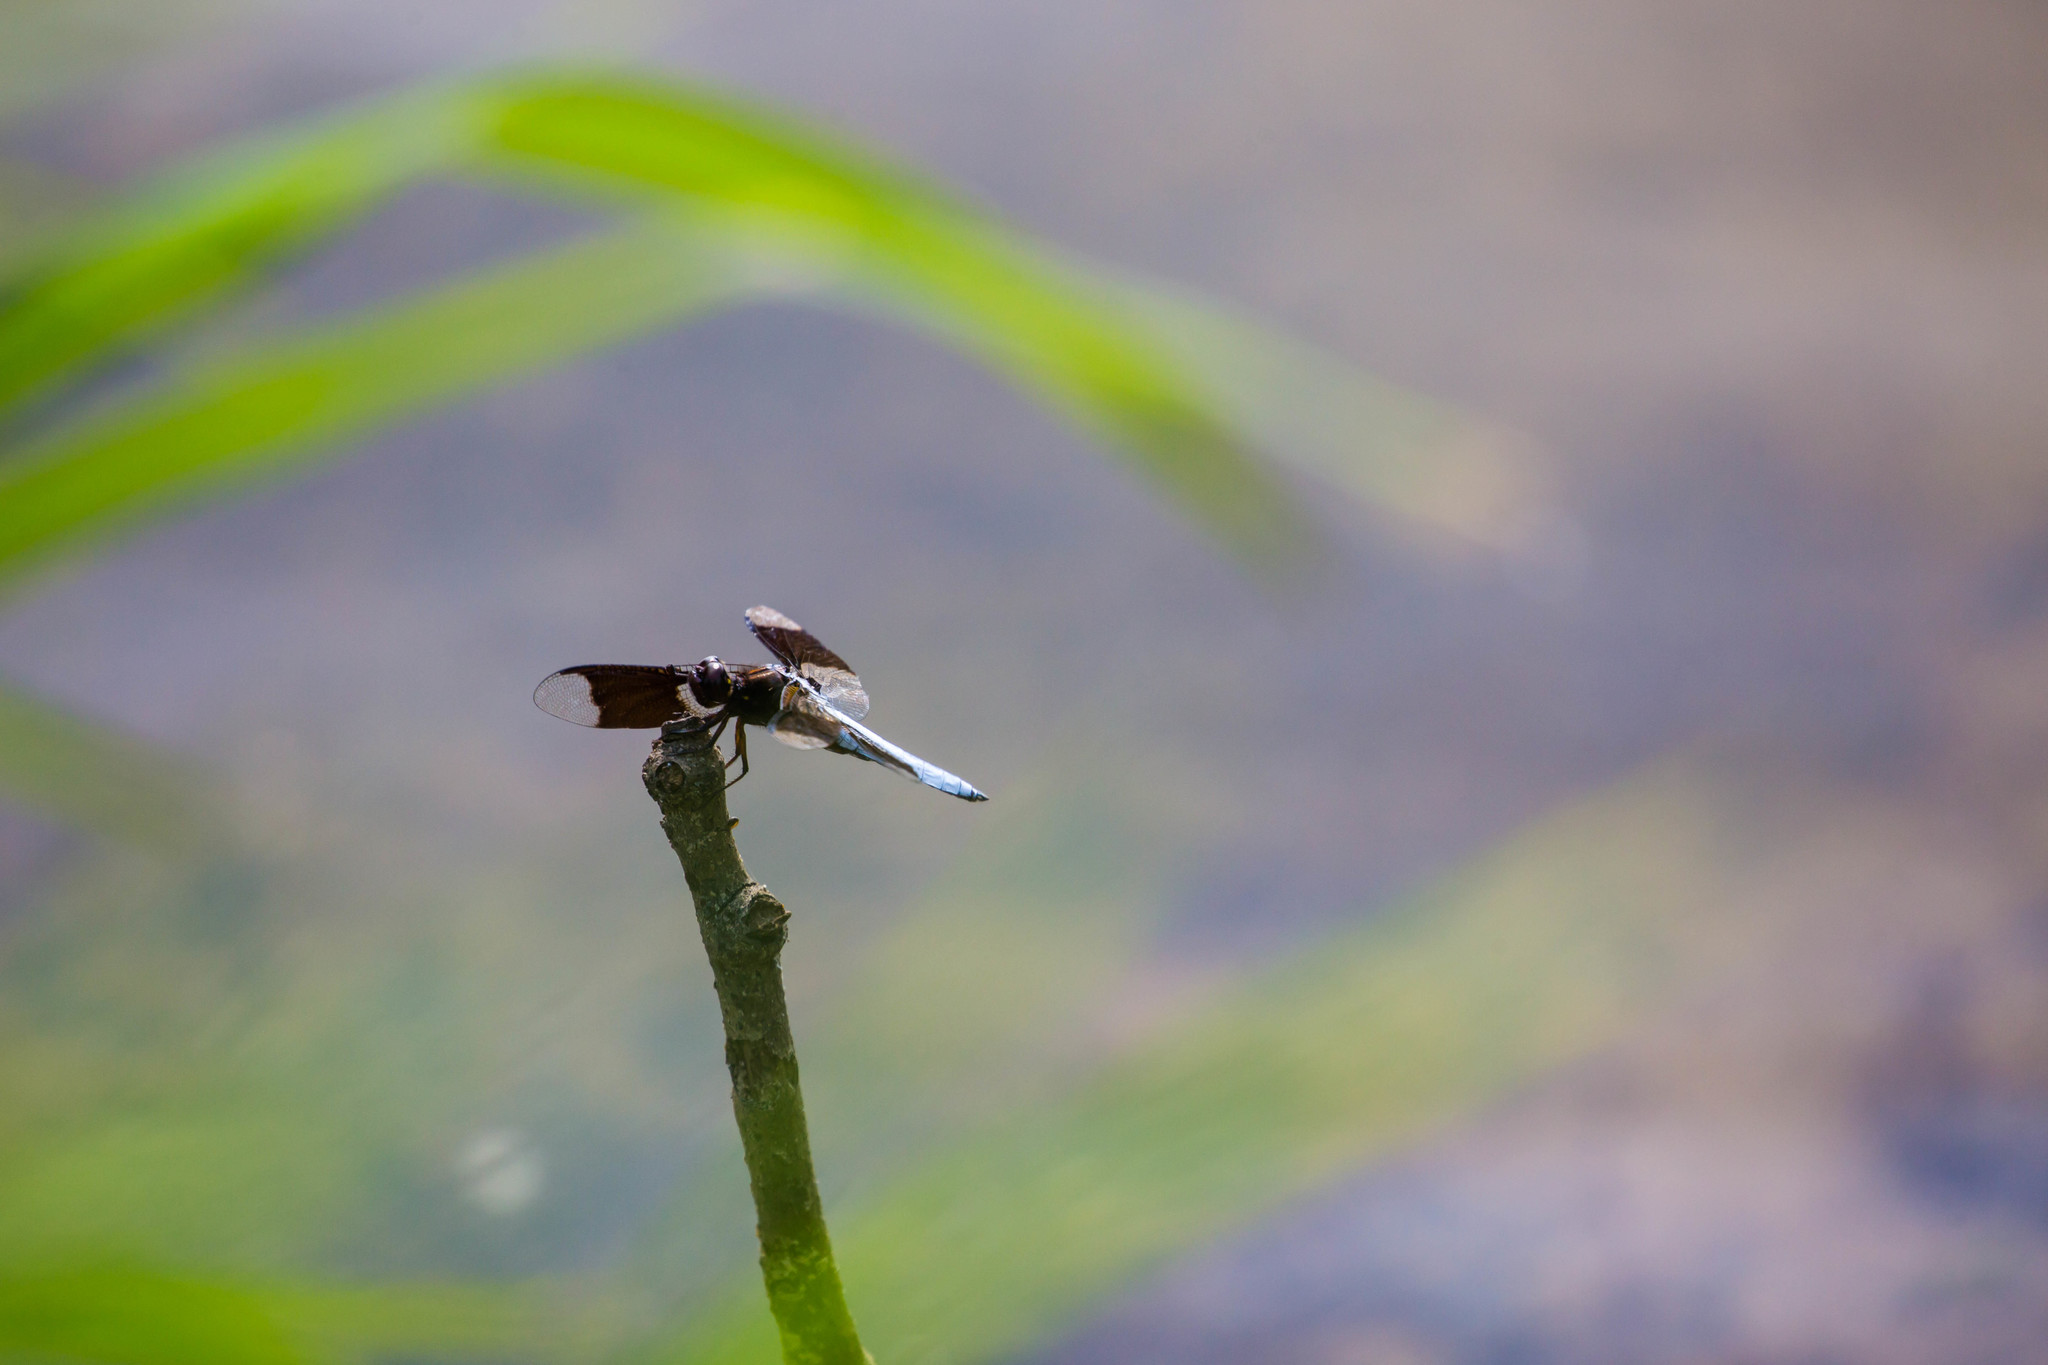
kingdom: Animalia
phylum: Arthropoda
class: Insecta
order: Odonata
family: Libellulidae
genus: Plathemis
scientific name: Plathemis lydia
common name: Common whitetail
